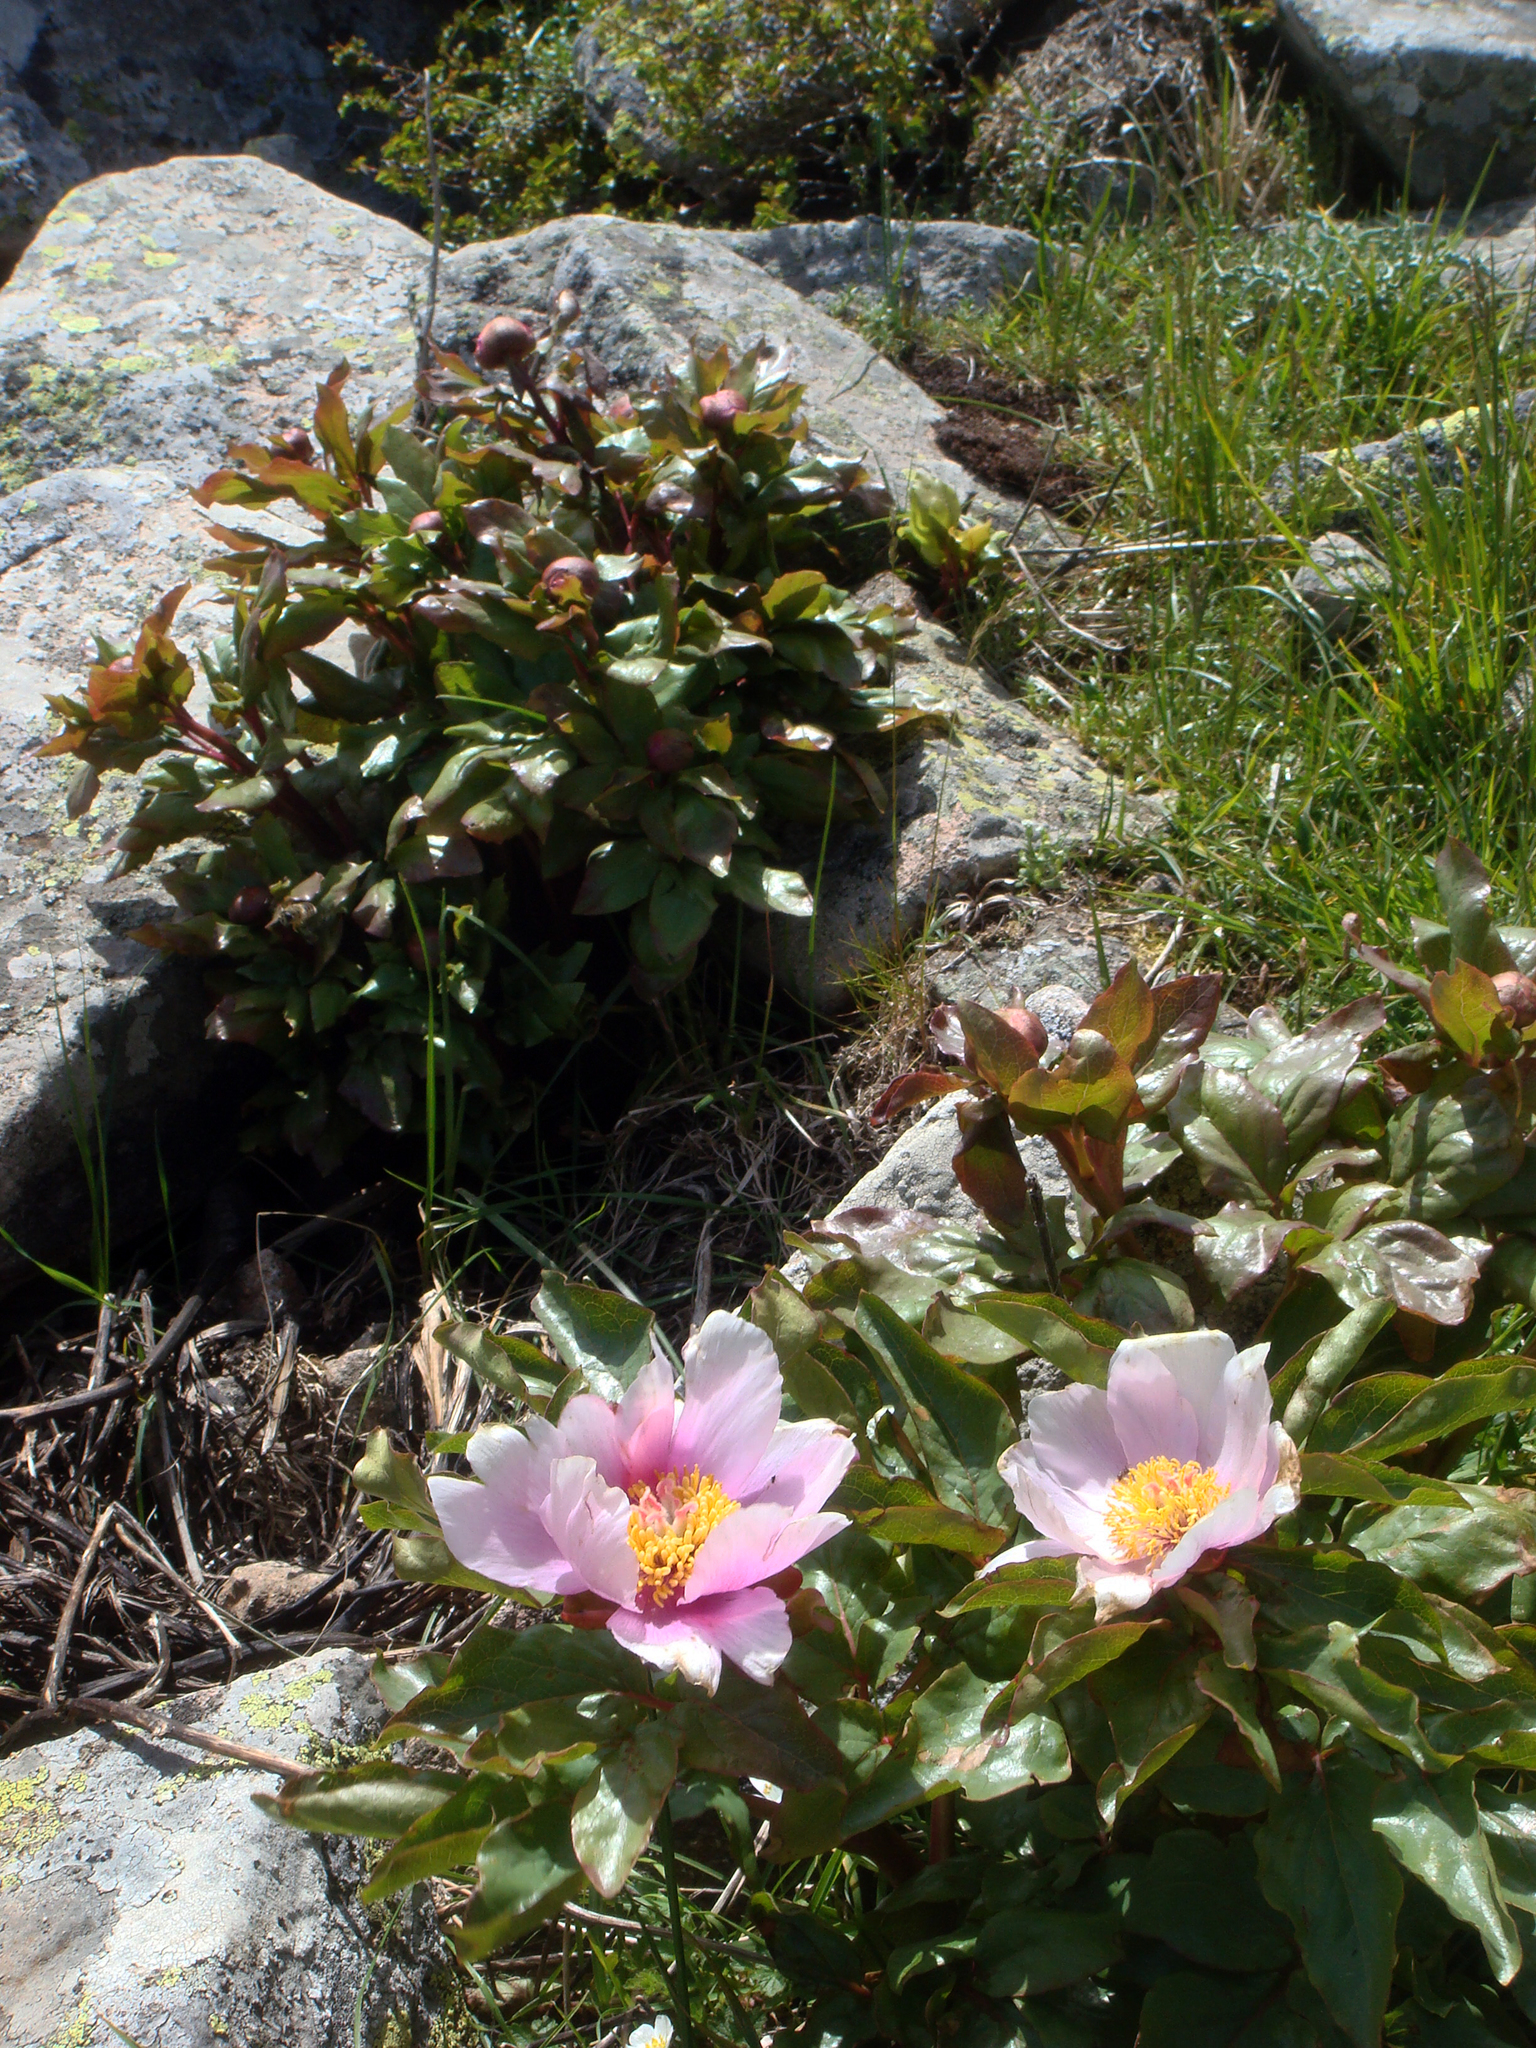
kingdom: Plantae
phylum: Tracheophyta
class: Magnoliopsida
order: Saxifragales
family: Paeoniaceae
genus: Paeonia
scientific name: Paeonia corsica
